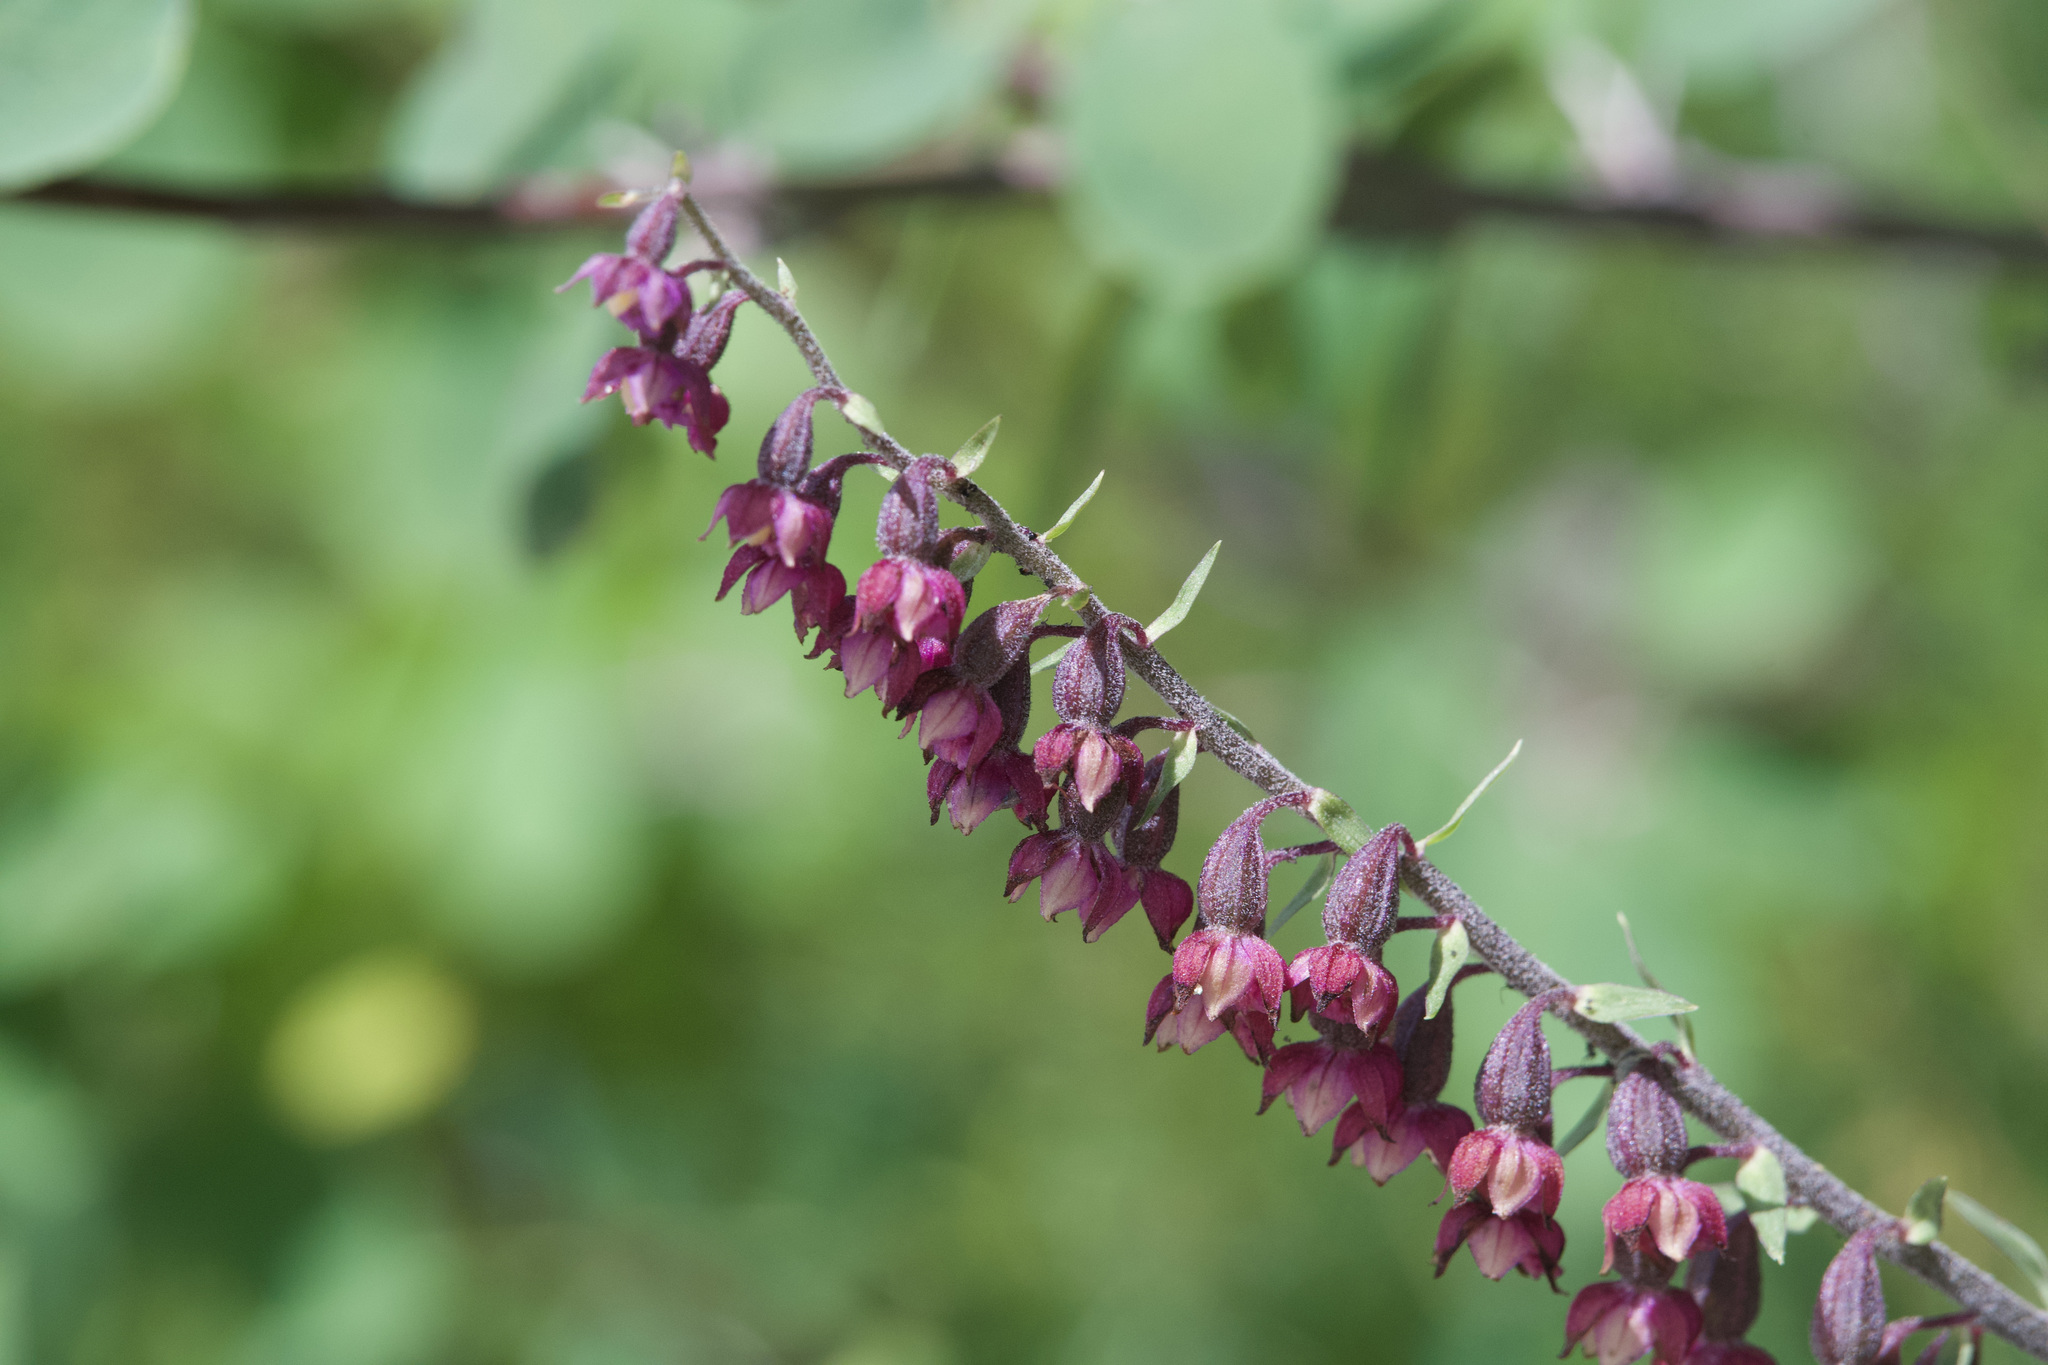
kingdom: Plantae
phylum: Tracheophyta
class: Liliopsida
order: Asparagales
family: Orchidaceae
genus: Epipactis
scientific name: Epipactis atrorubens
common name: Dark-red helleborine
